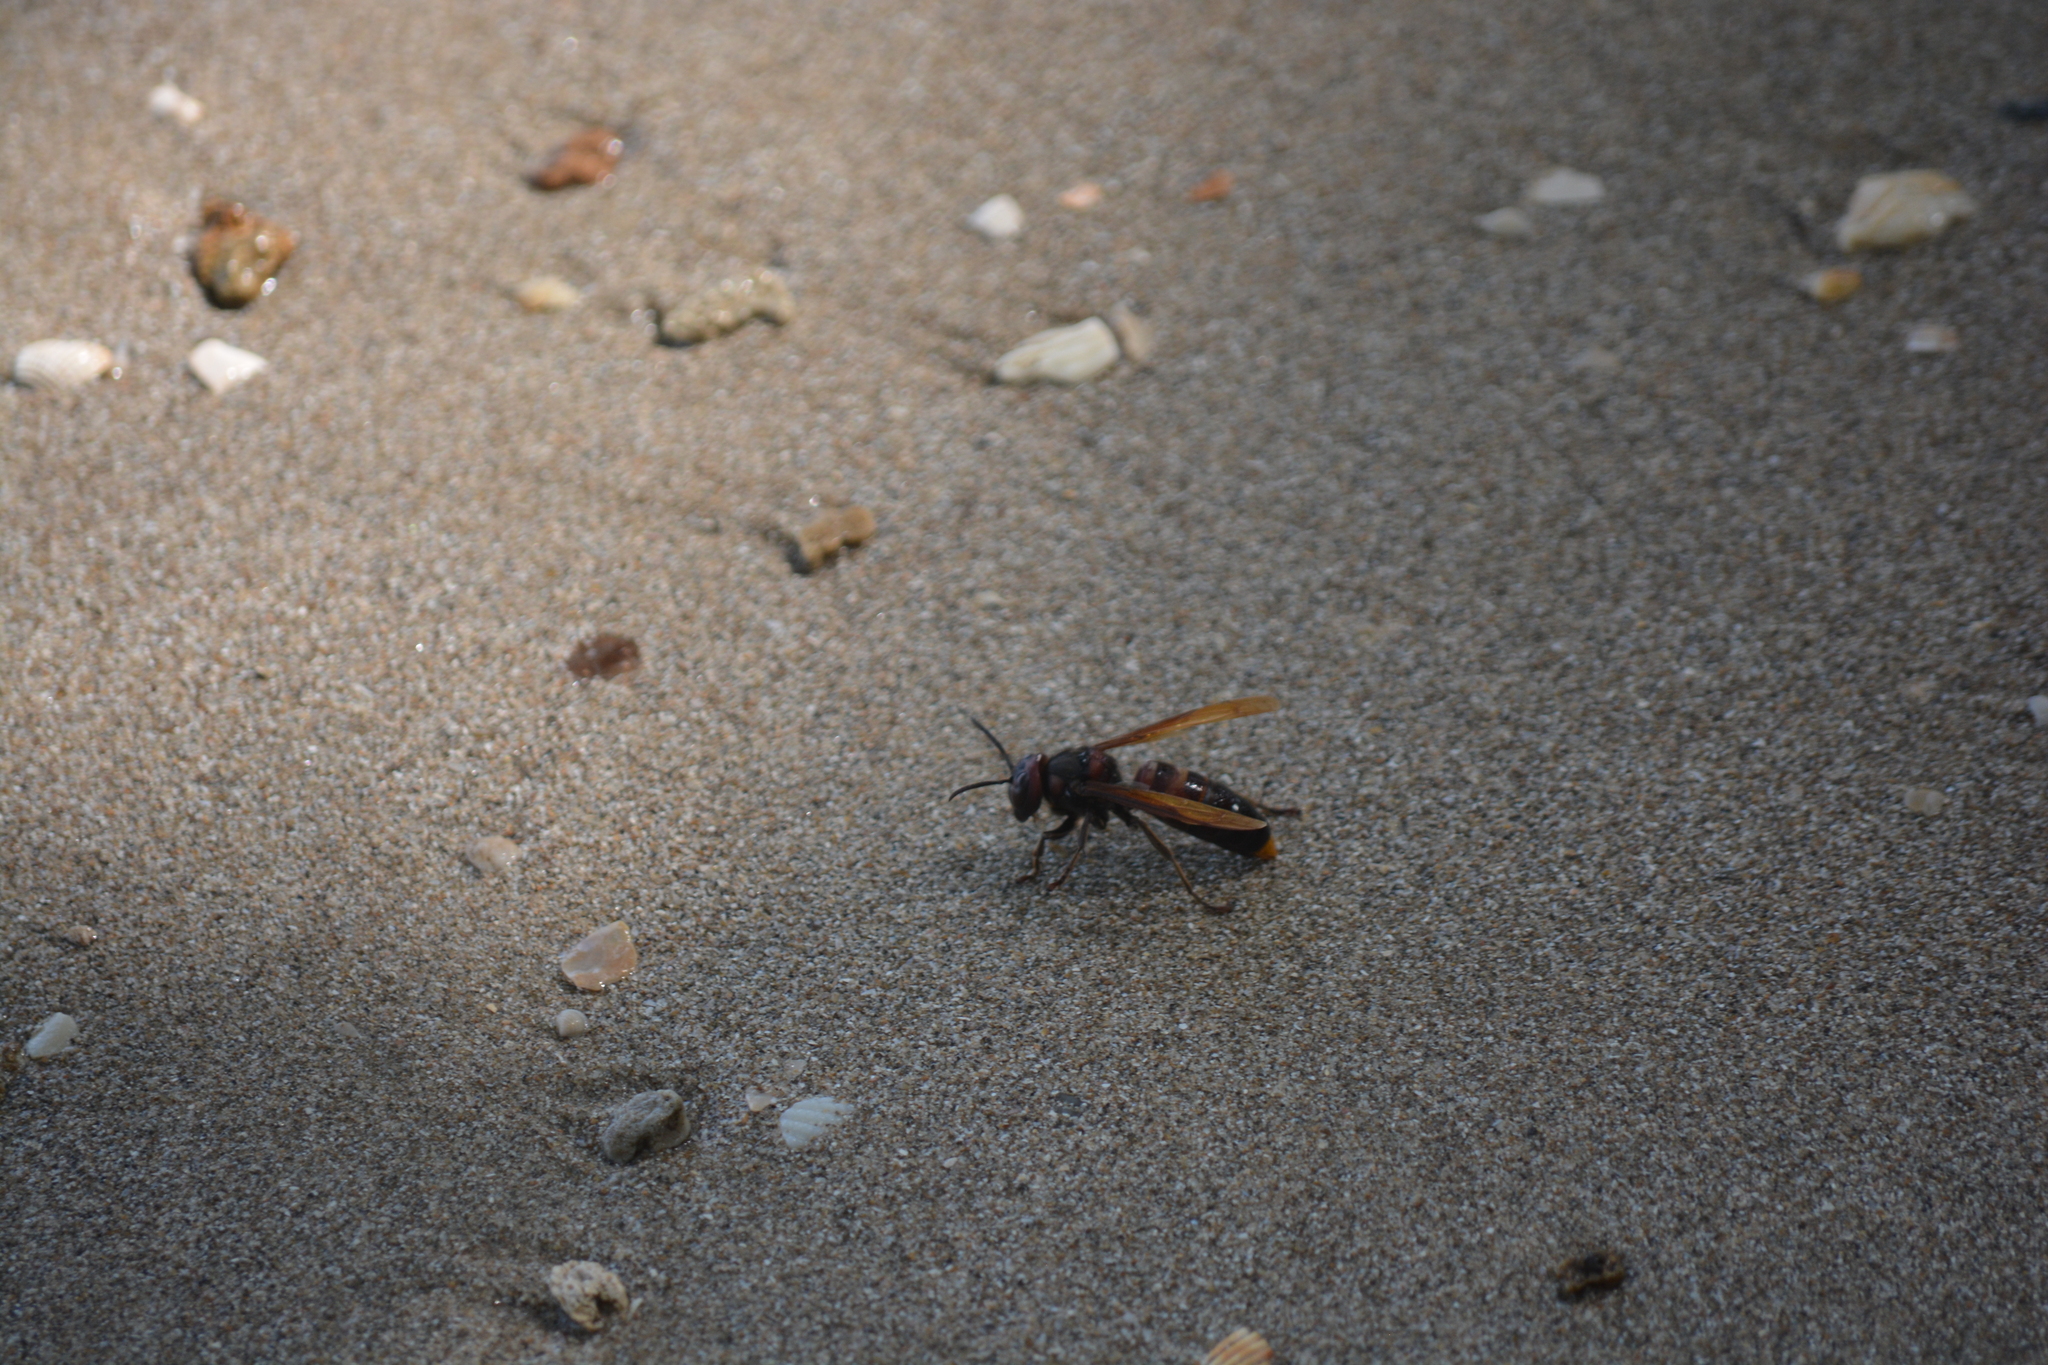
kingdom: Animalia
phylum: Arthropoda
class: Insecta
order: Hymenoptera
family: Vespidae
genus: Vespa
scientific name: Vespa analis
